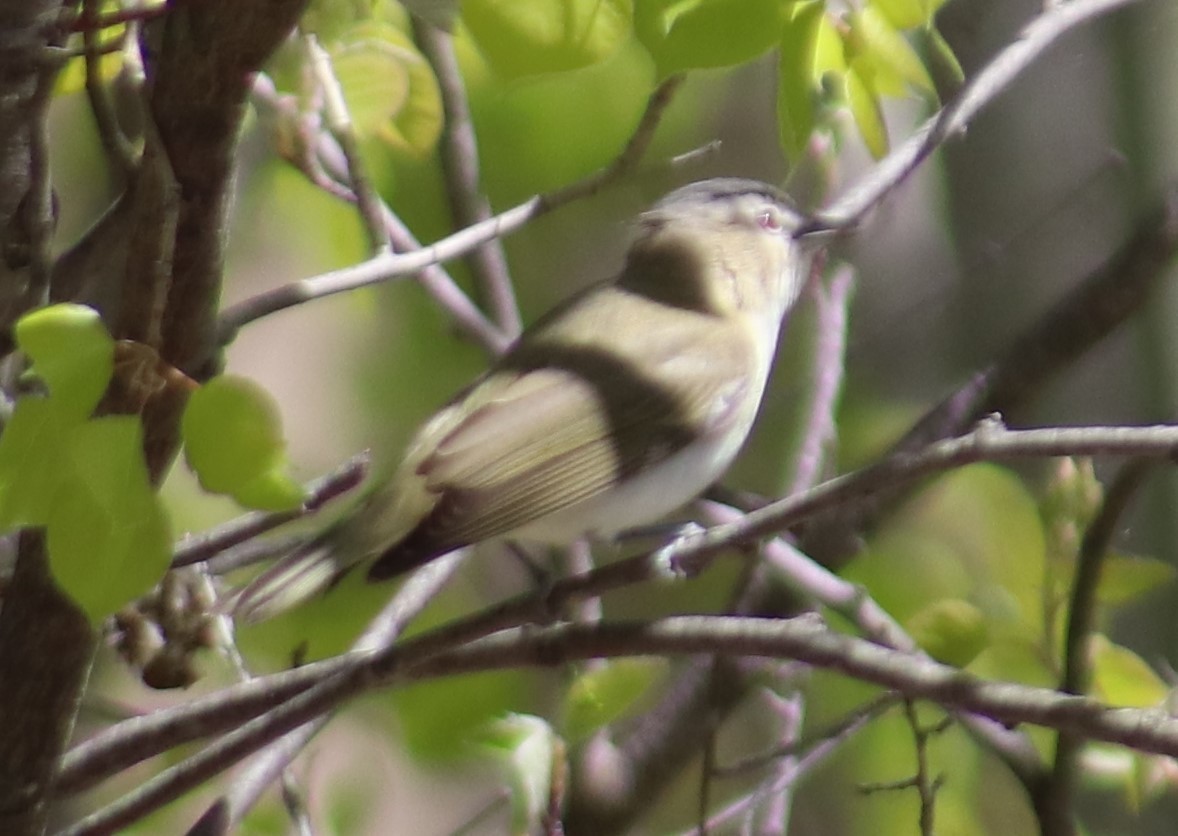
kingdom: Animalia
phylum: Chordata
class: Aves
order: Passeriformes
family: Vireonidae
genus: Vireo
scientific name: Vireo olivaceus
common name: Red-eyed vireo
